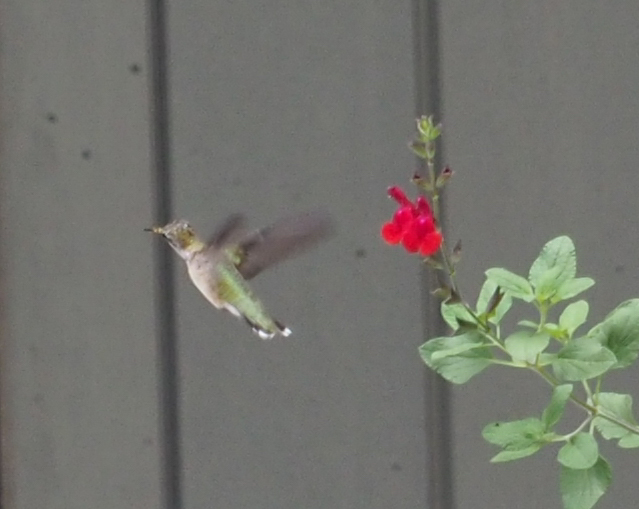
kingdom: Animalia
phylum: Chordata
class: Aves
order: Apodiformes
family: Trochilidae
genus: Archilochus
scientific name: Archilochus colubris
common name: Ruby-throated hummingbird
